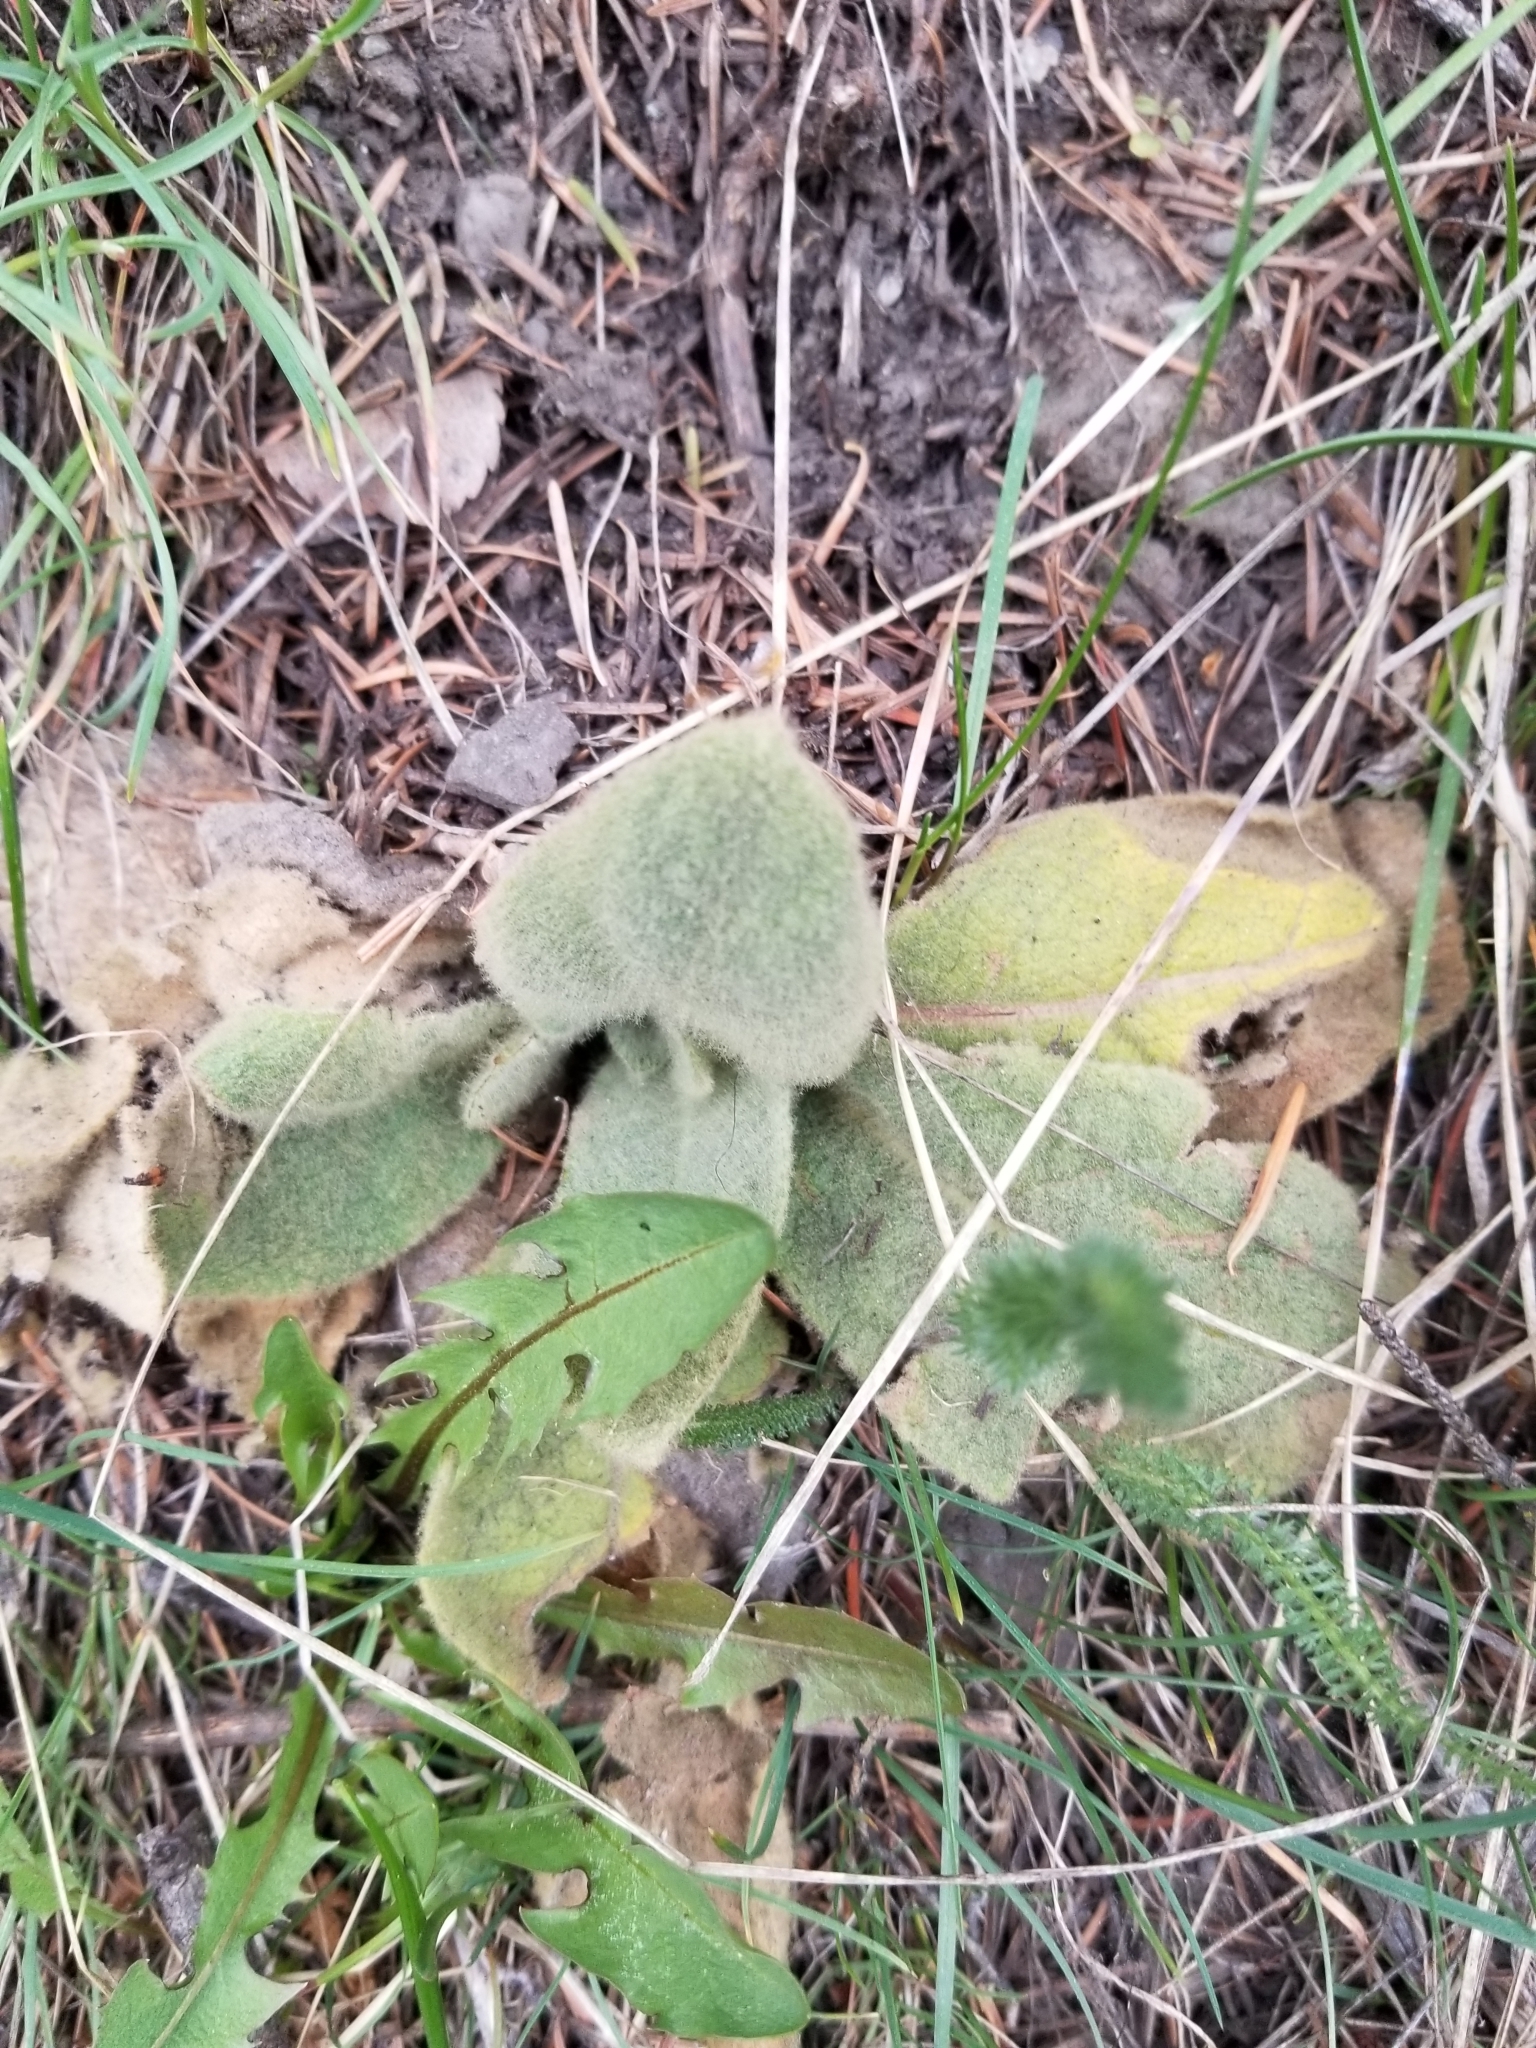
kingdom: Plantae
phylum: Tracheophyta
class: Magnoliopsida
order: Lamiales
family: Scrophulariaceae
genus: Verbascum
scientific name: Verbascum thapsus
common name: Common mullein
